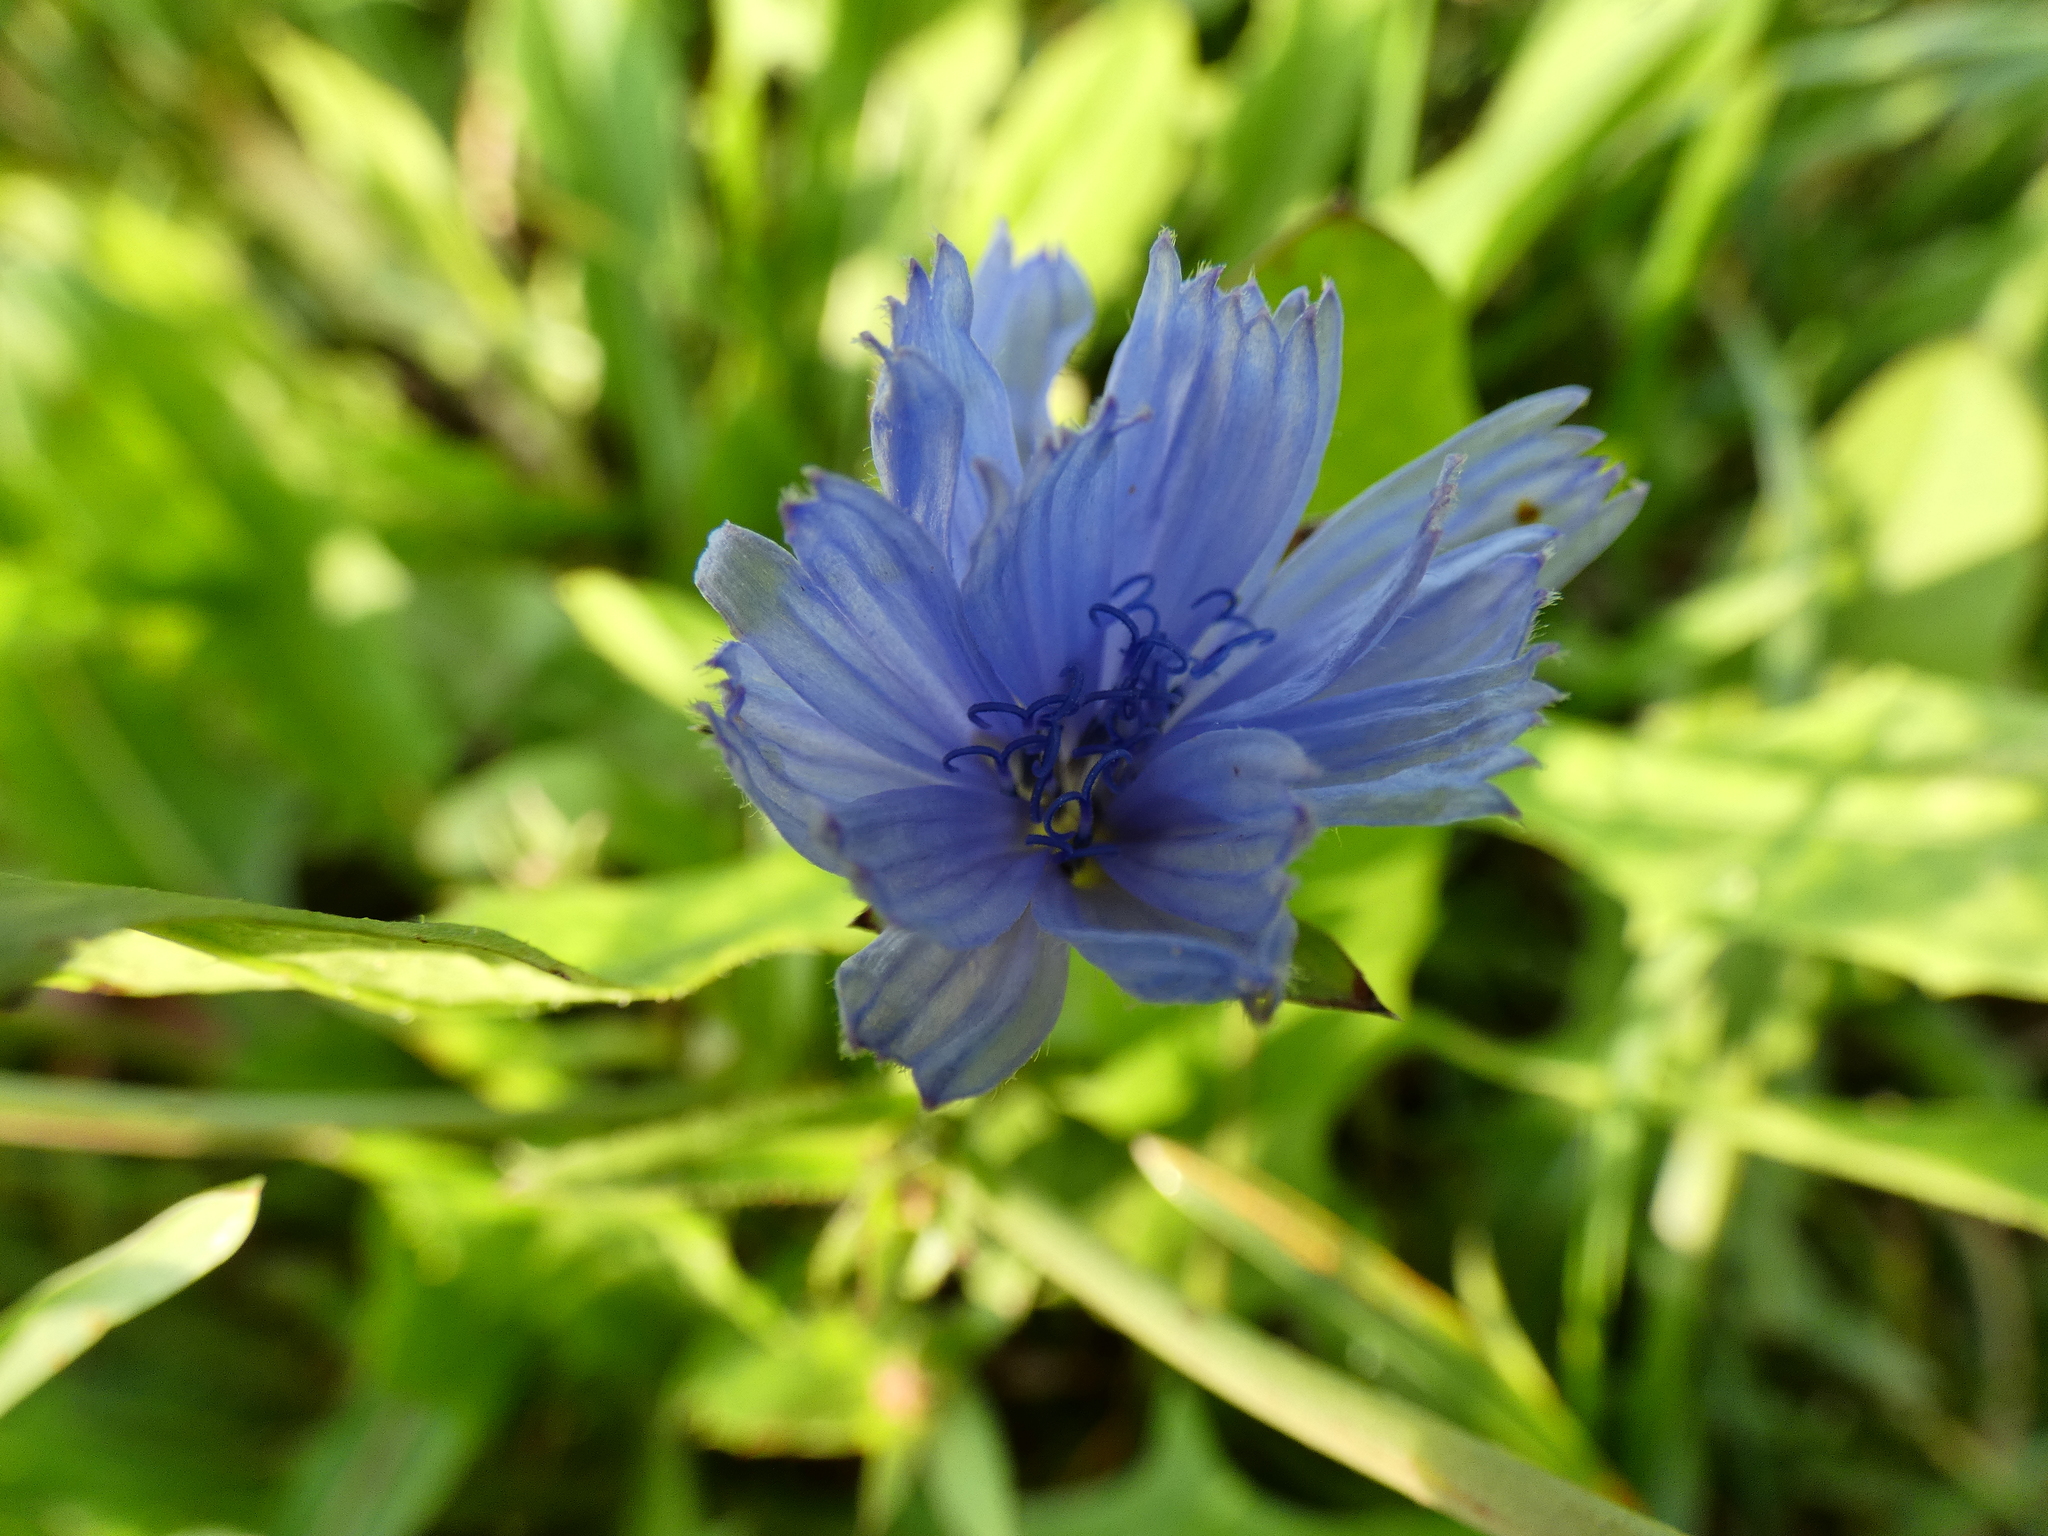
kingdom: Plantae
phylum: Tracheophyta
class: Magnoliopsida
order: Asterales
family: Asteraceae
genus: Cichorium
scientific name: Cichorium intybus
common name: Chicory
